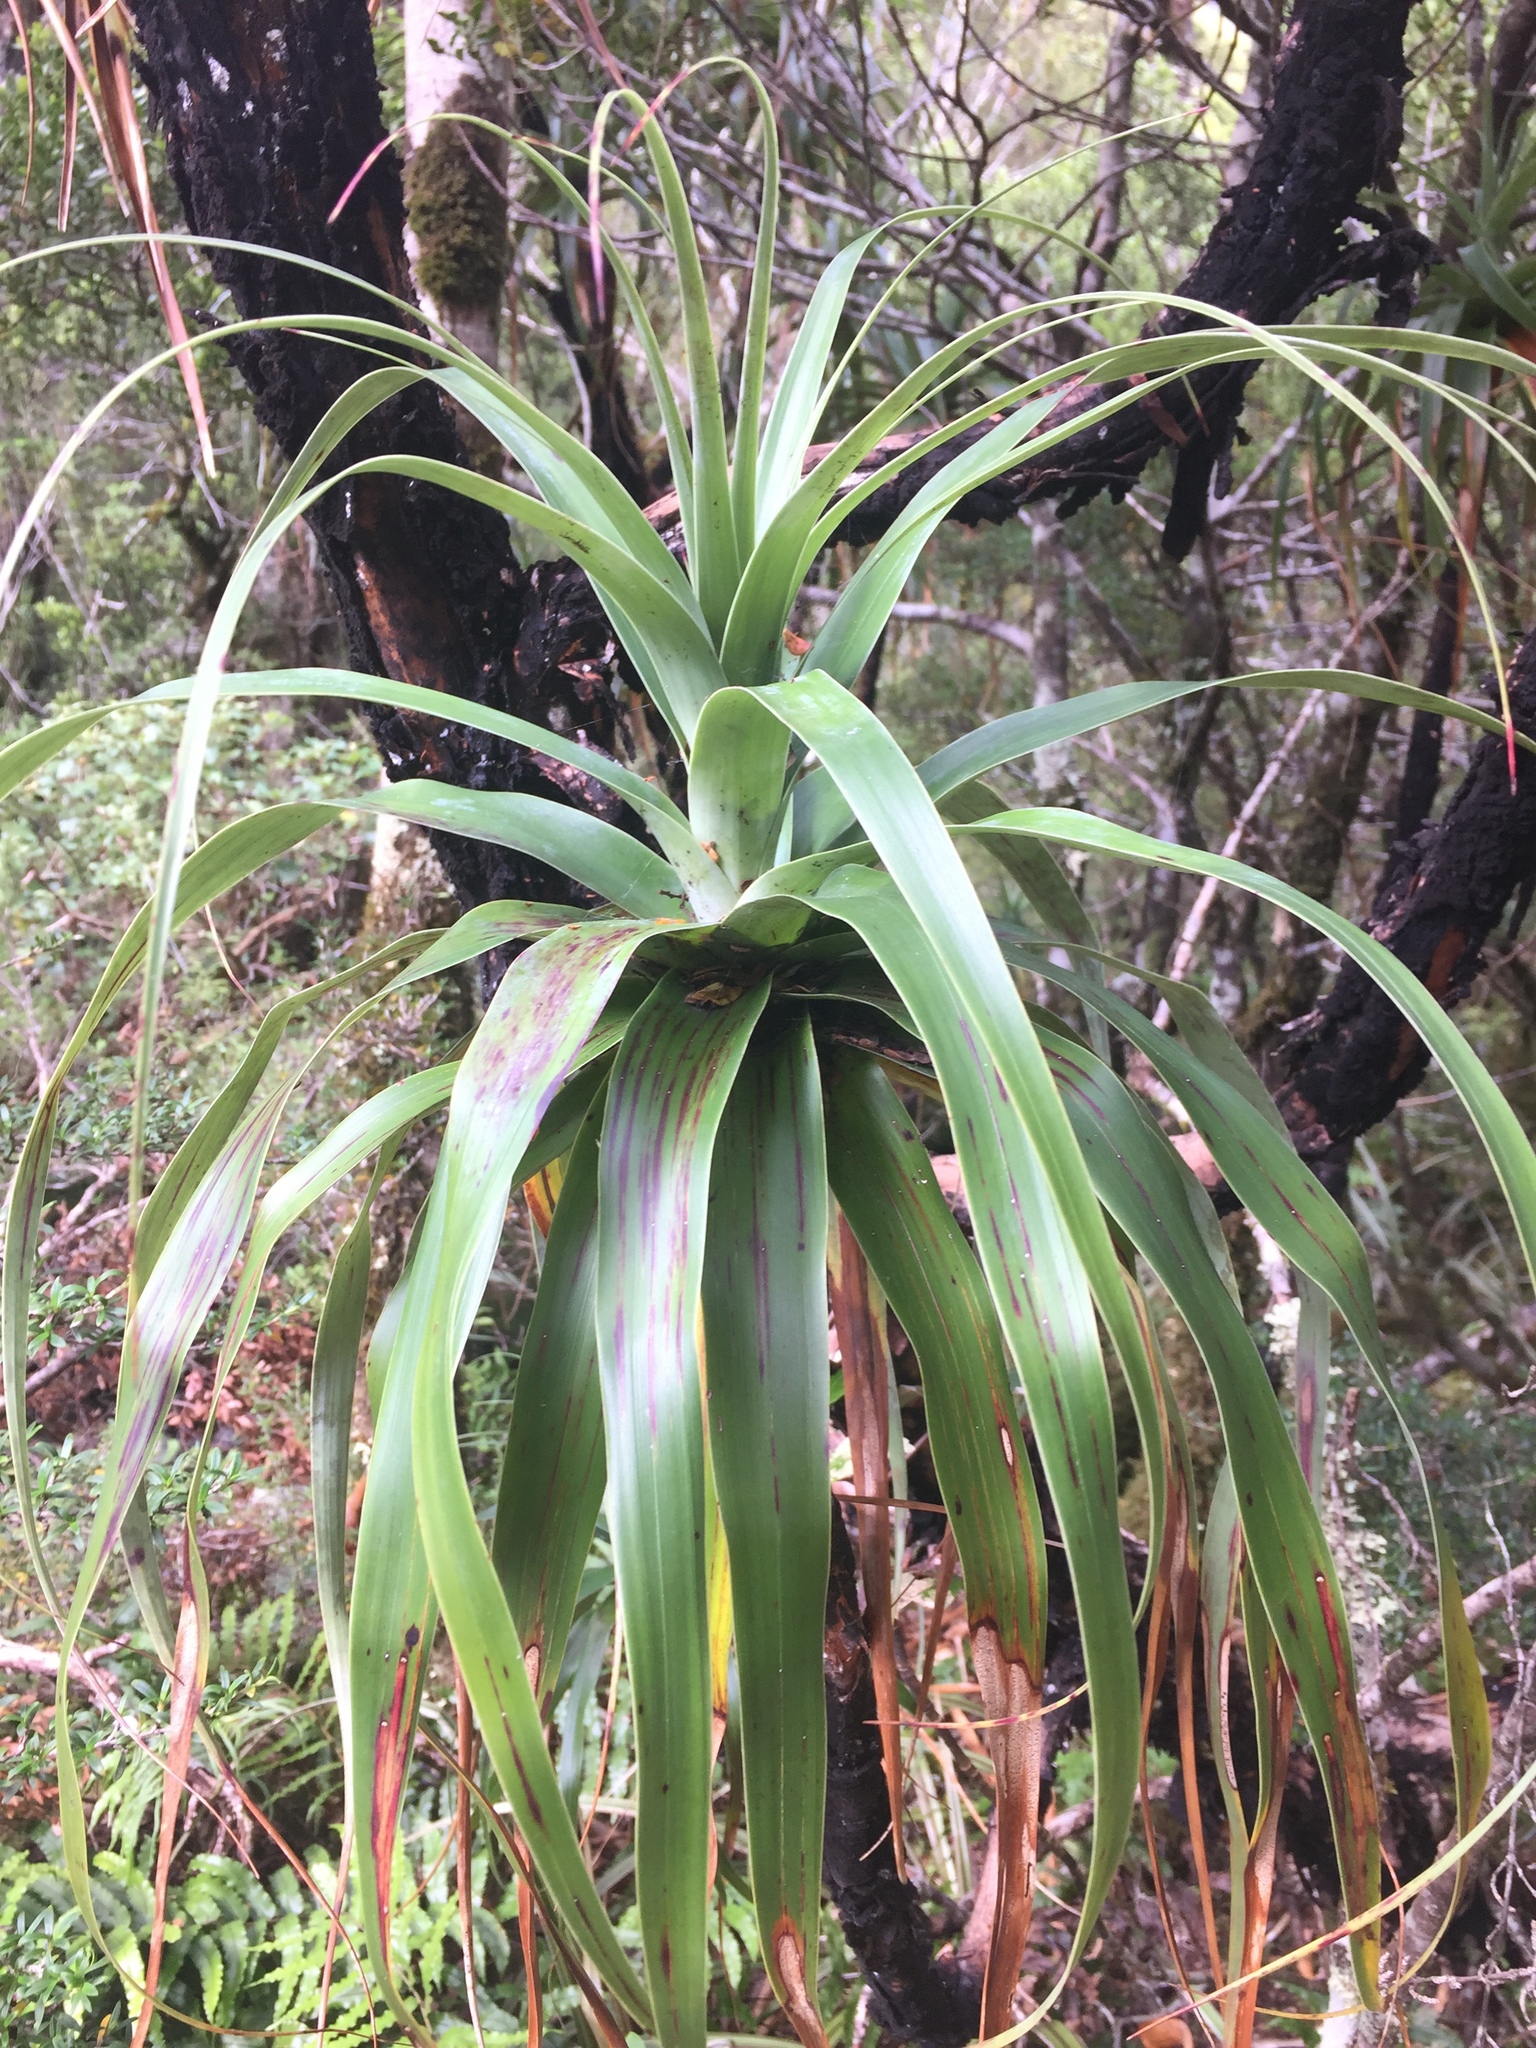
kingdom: Plantae
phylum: Tracheophyta
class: Magnoliopsida
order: Ericales
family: Ericaceae
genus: Dracophyllum
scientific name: Dracophyllum traversii
